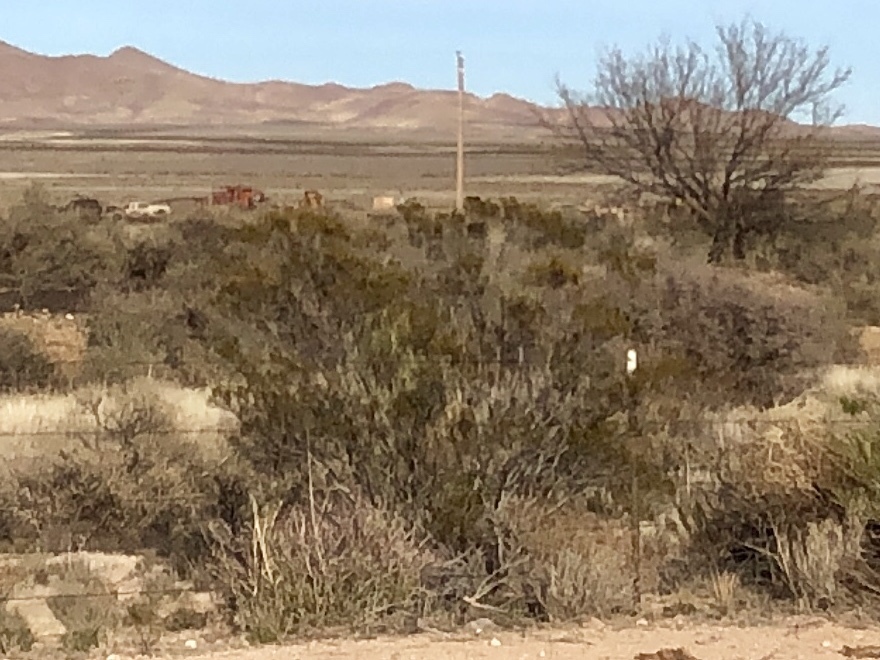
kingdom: Plantae
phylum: Tracheophyta
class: Magnoliopsida
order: Zygophyllales
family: Zygophyllaceae
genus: Larrea
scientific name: Larrea tridentata
